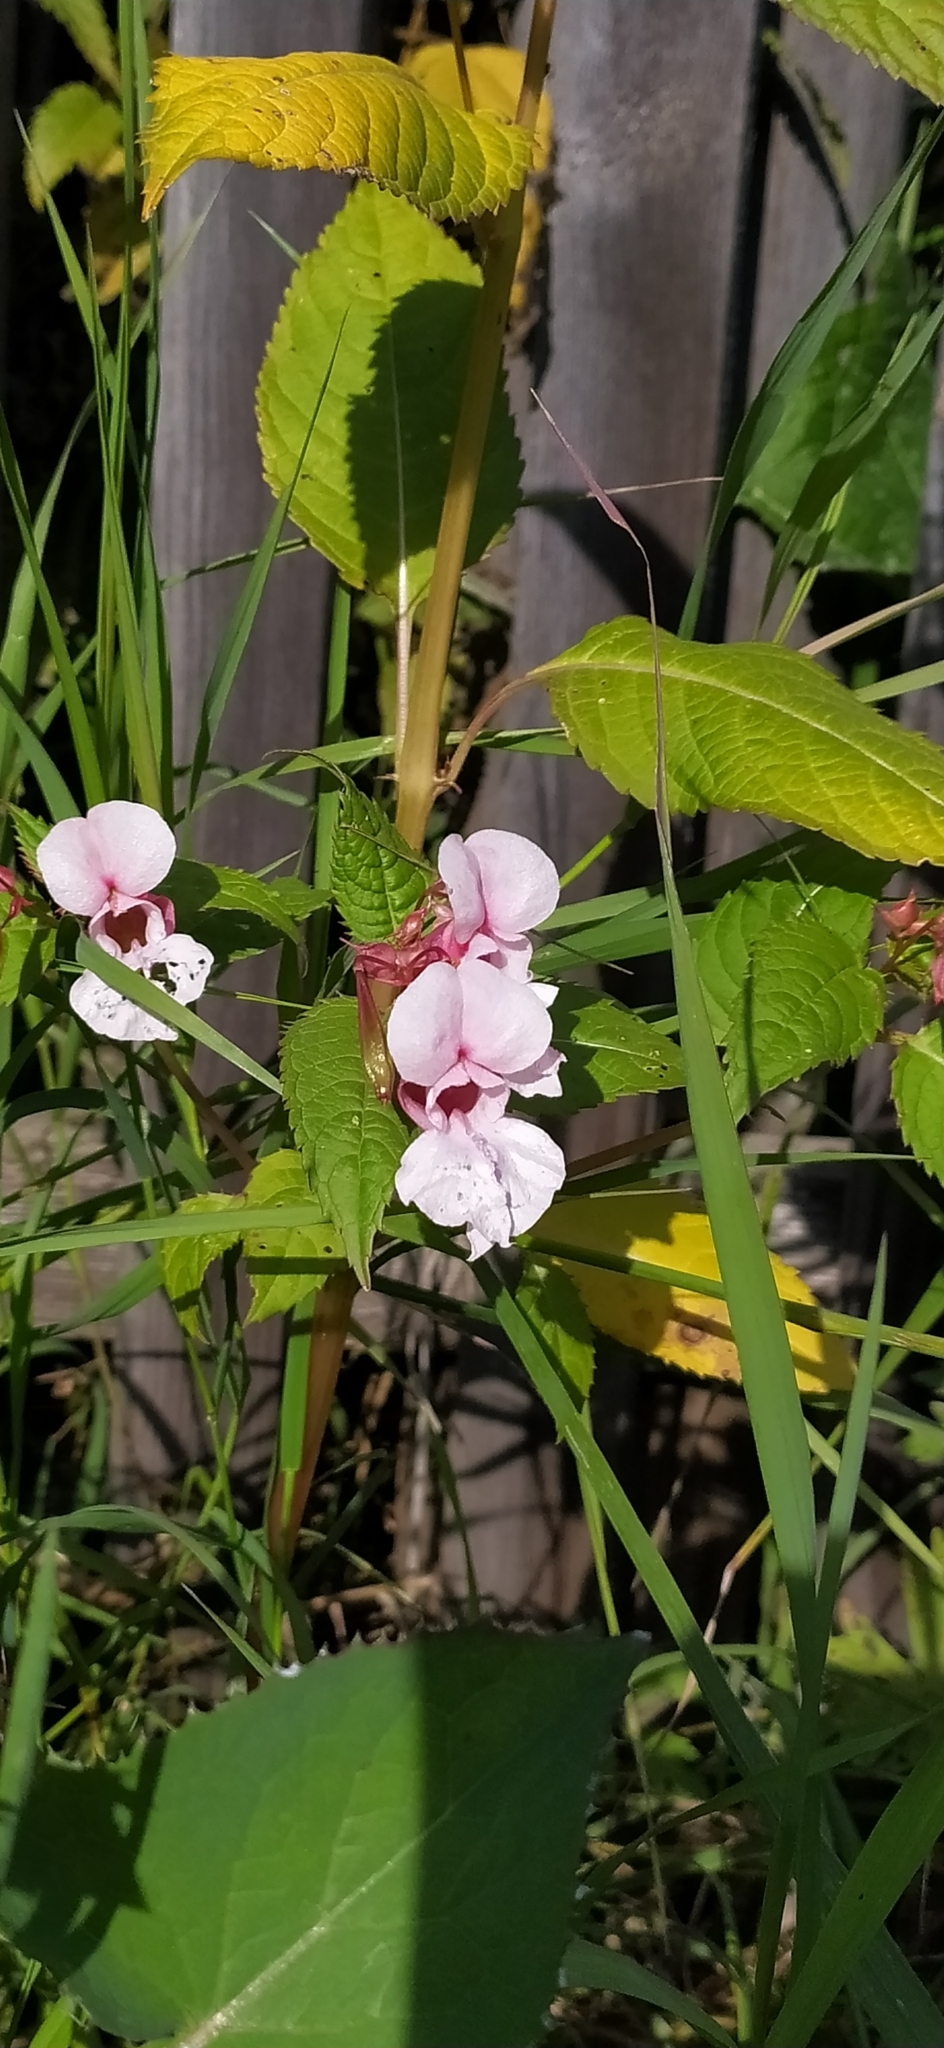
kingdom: Plantae
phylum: Tracheophyta
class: Magnoliopsida
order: Ericales
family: Balsaminaceae
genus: Impatiens
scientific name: Impatiens glandulifera
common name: Himalayan balsam
